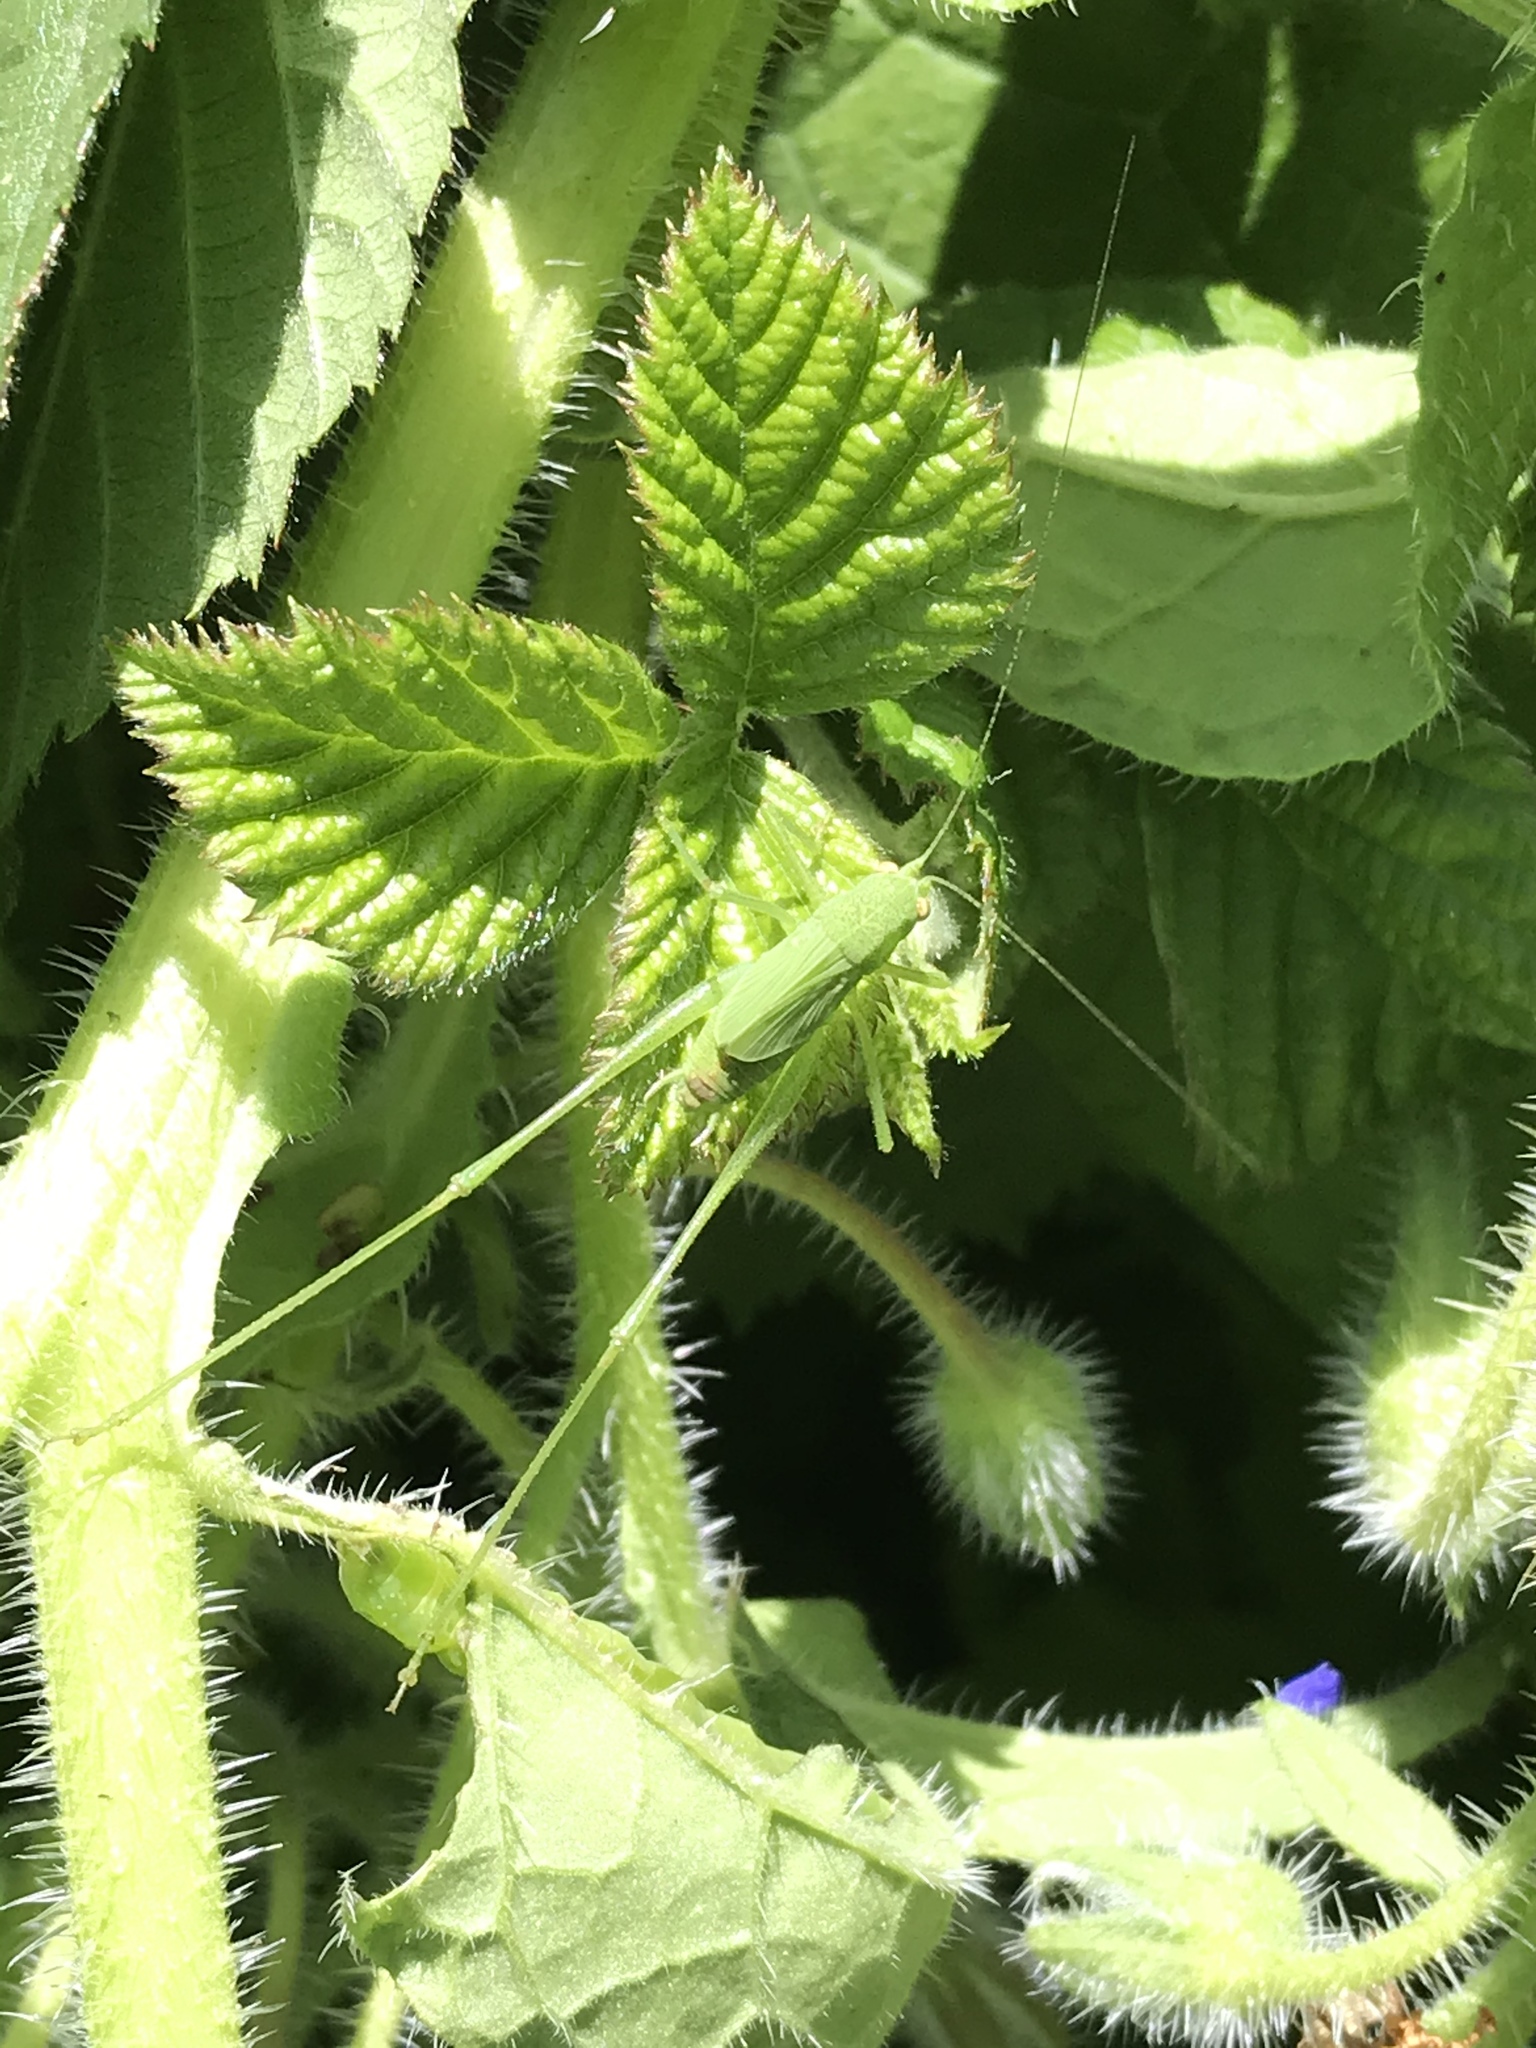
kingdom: Animalia
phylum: Arthropoda
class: Insecta
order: Orthoptera
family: Tettigoniidae
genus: Phaneroptera
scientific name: Phaneroptera nana
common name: Southern sickle bush-cricket
